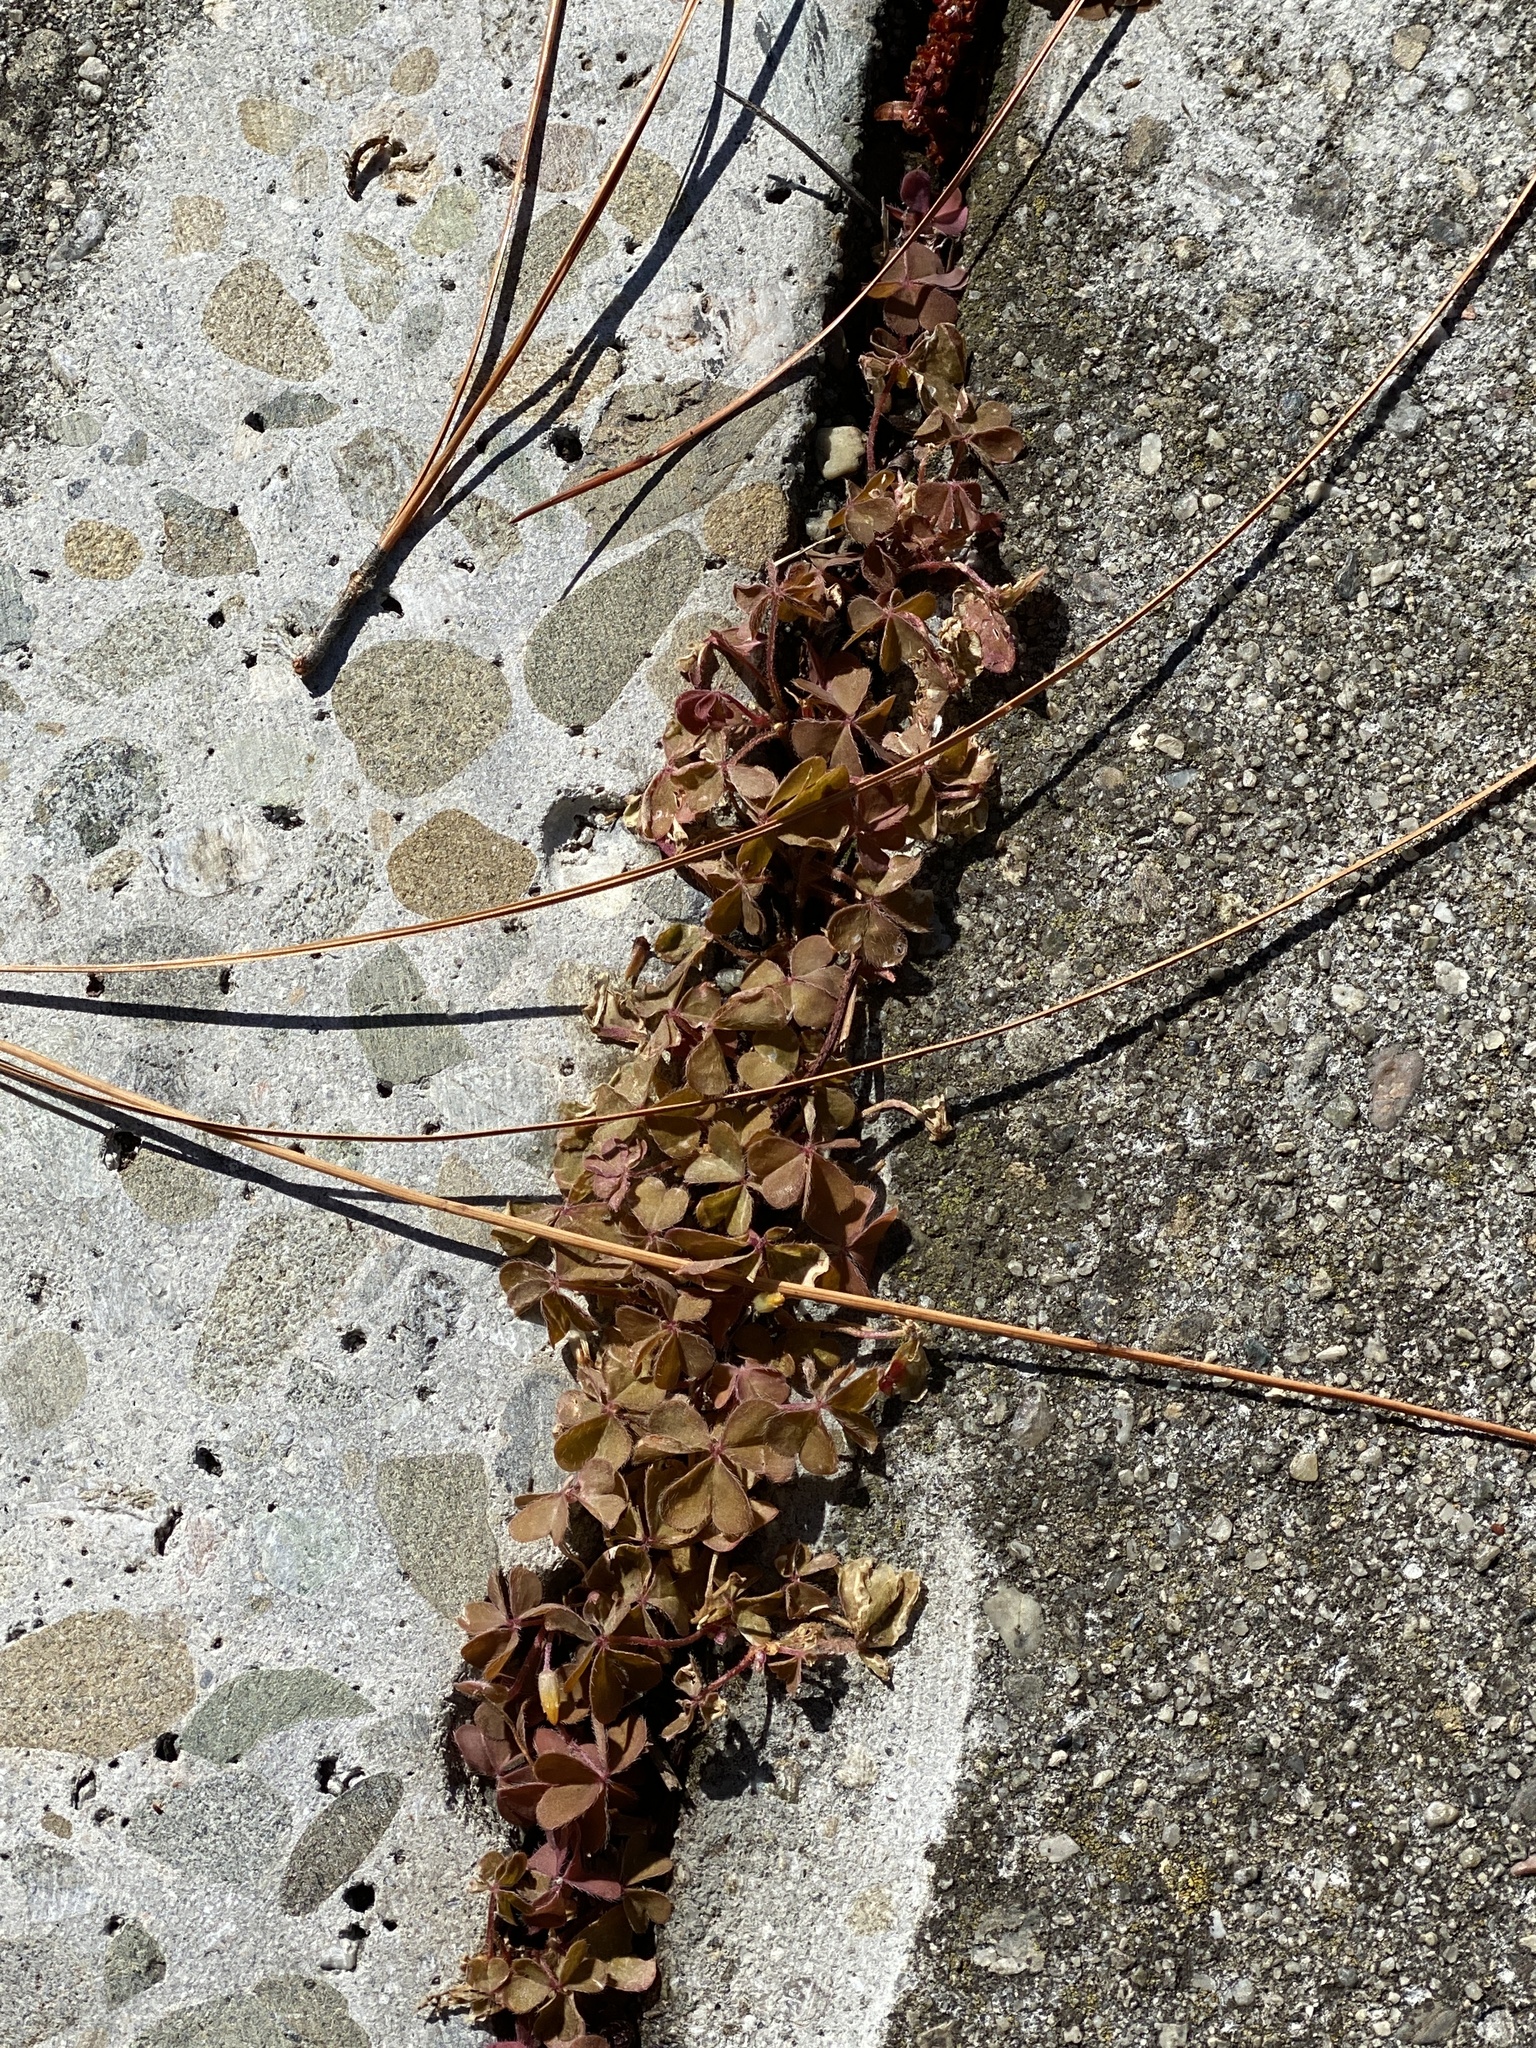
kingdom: Plantae
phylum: Tracheophyta
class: Magnoliopsida
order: Oxalidales
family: Oxalidaceae
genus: Oxalis
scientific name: Oxalis corniculata
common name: Procumbent yellow-sorrel
